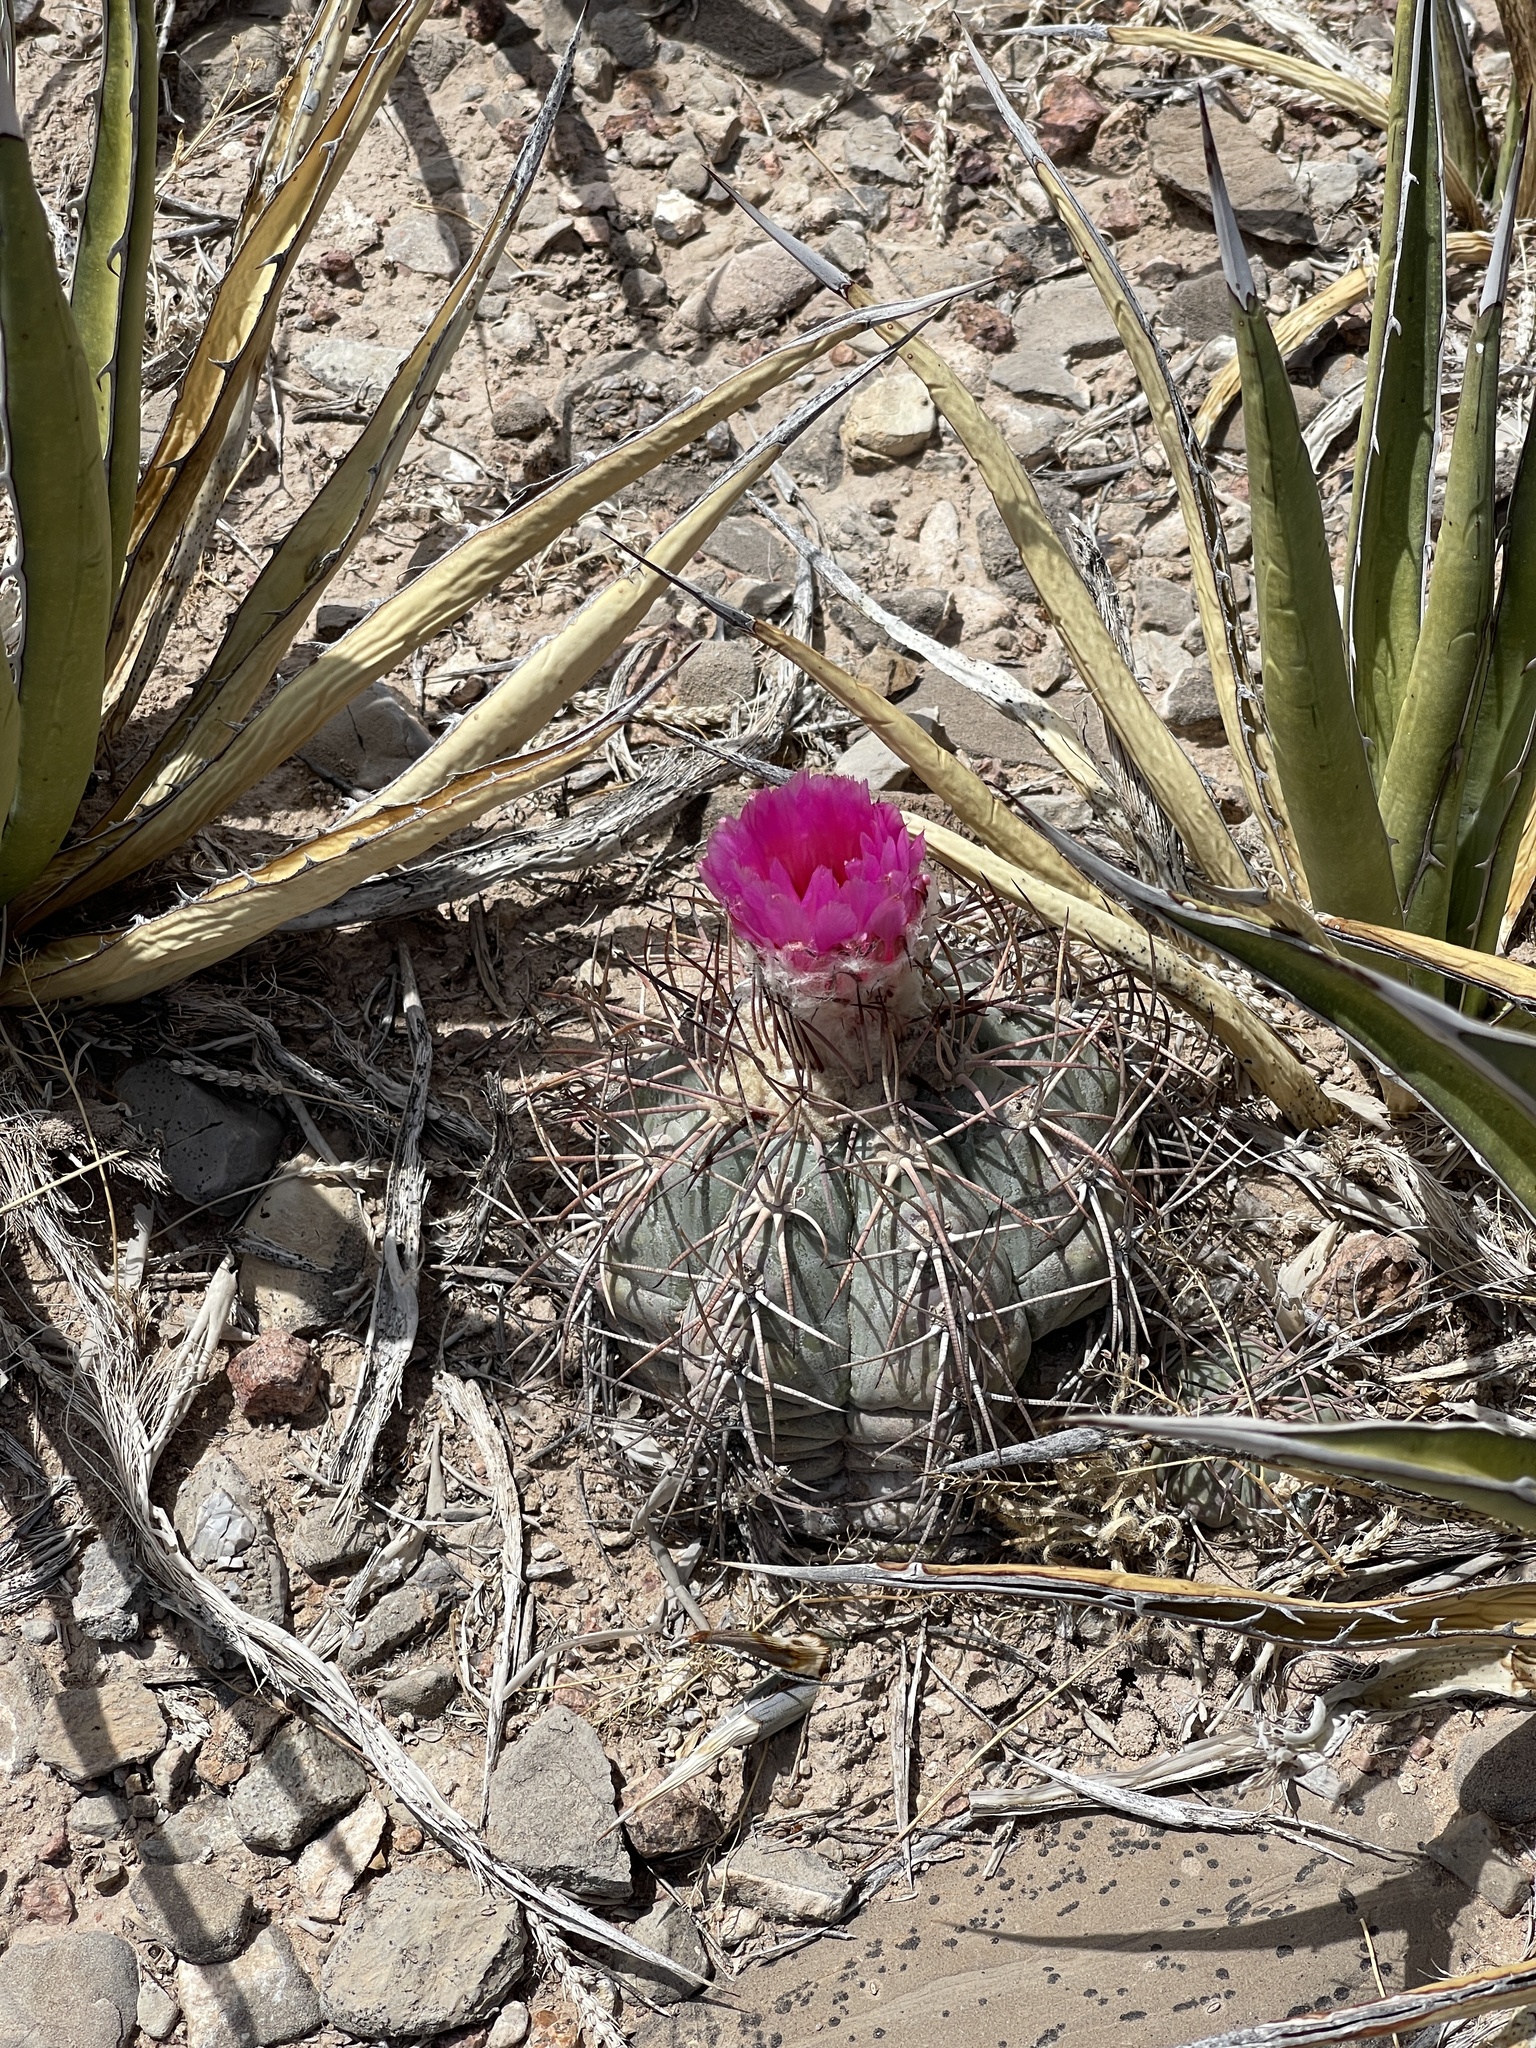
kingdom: Plantae
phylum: Tracheophyta
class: Magnoliopsida
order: Caryophyllales
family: Cactaceae
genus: Echinocactus
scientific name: Echinocactus horizonthalonius
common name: Devilshead
